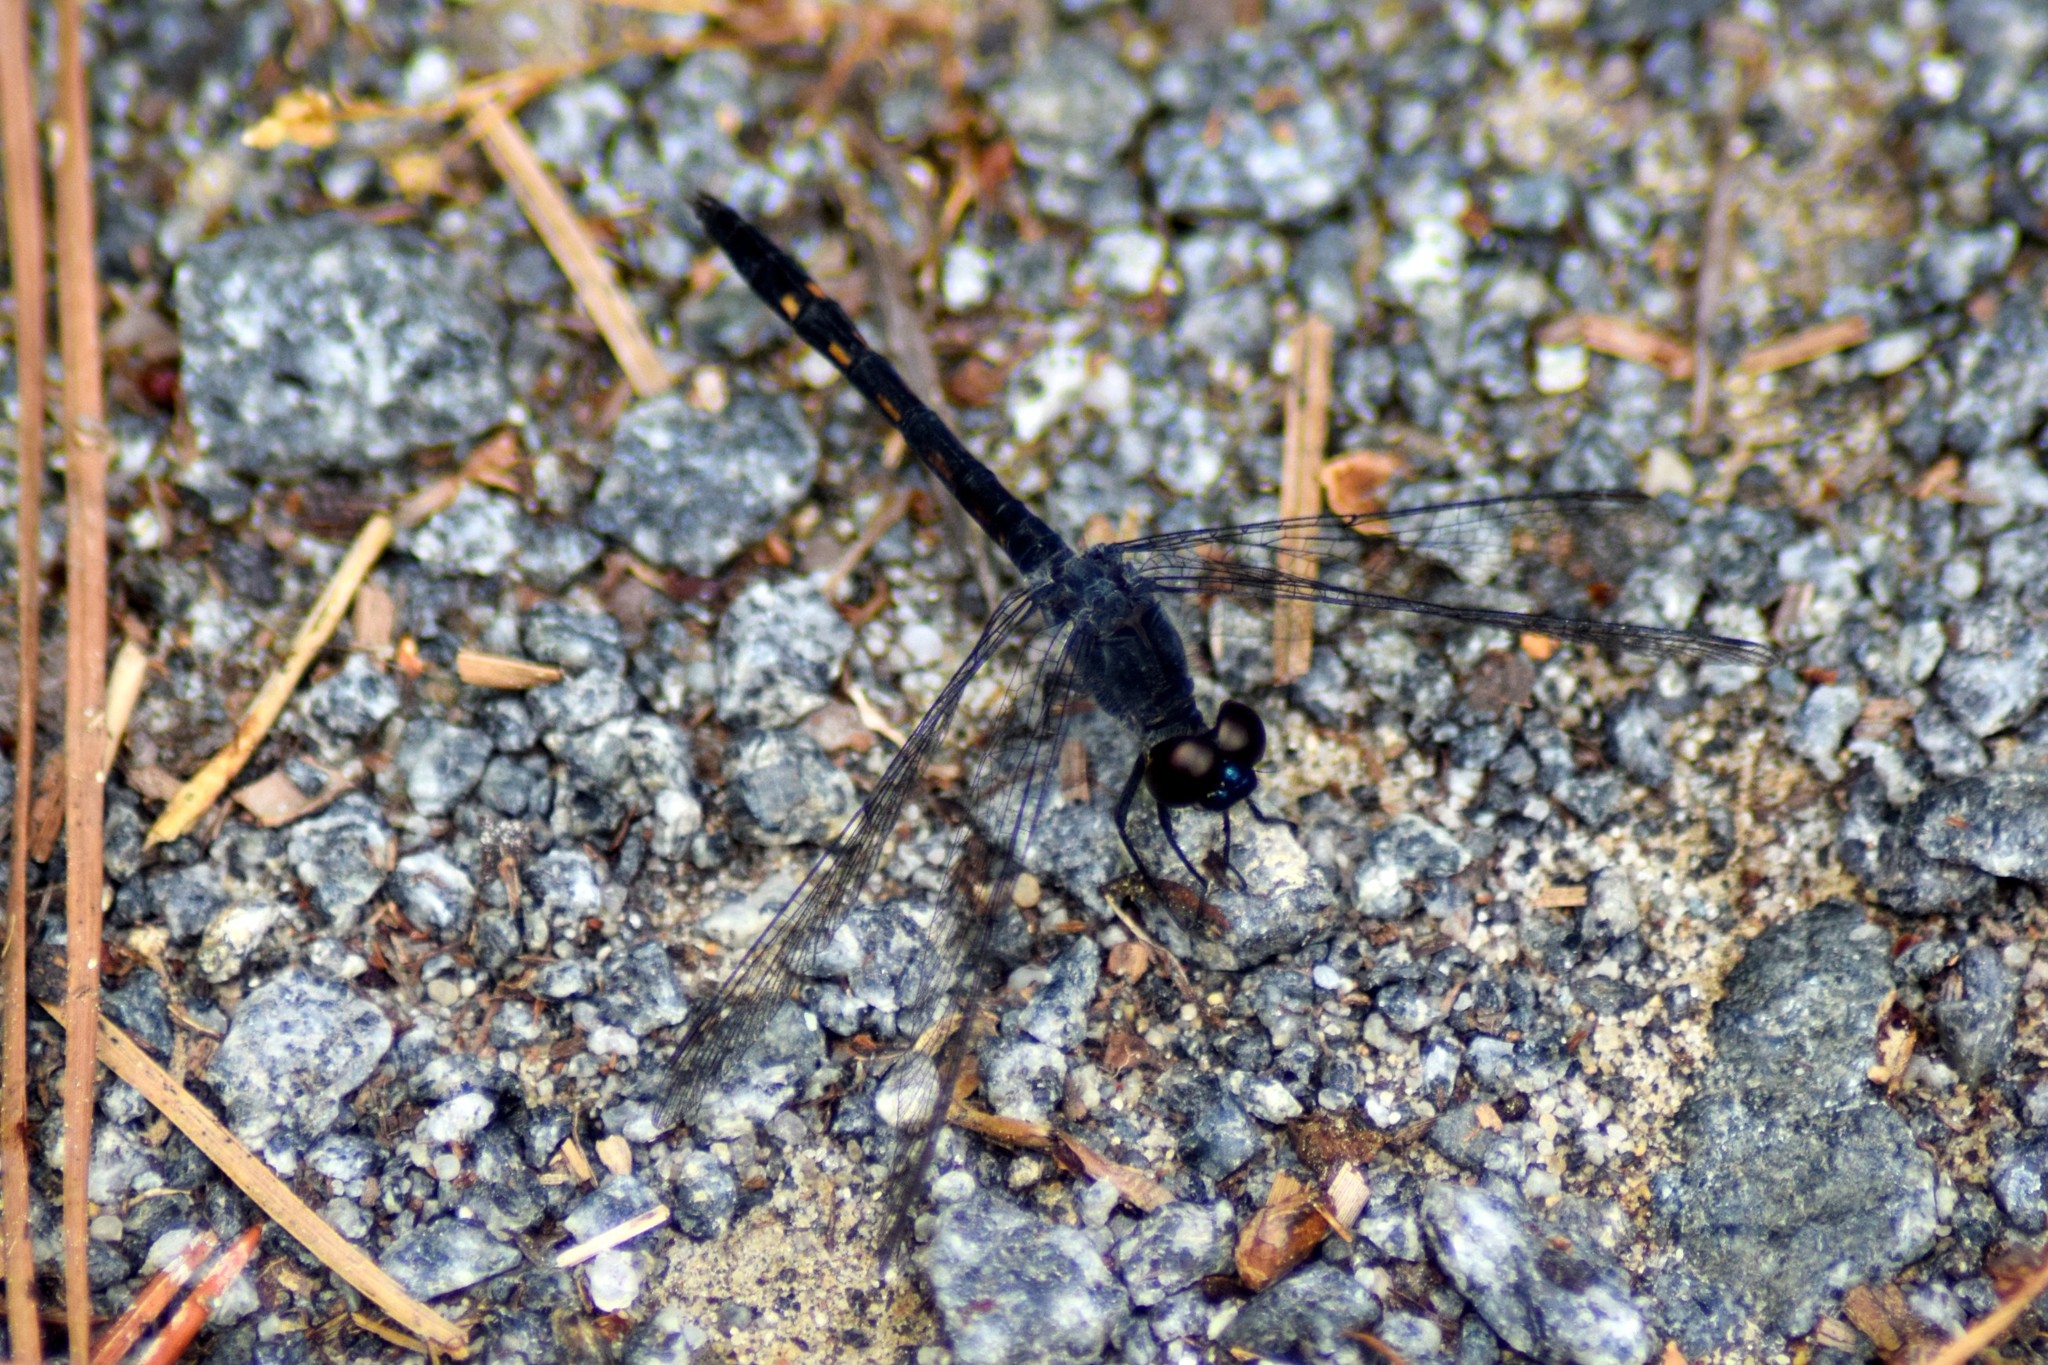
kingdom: Animalia
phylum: Arthropoda
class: Insecta
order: Odonata
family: Libellulidae
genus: Erythrodiplax
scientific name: Erythrodiplax berenice
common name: Seaside dragonlet
